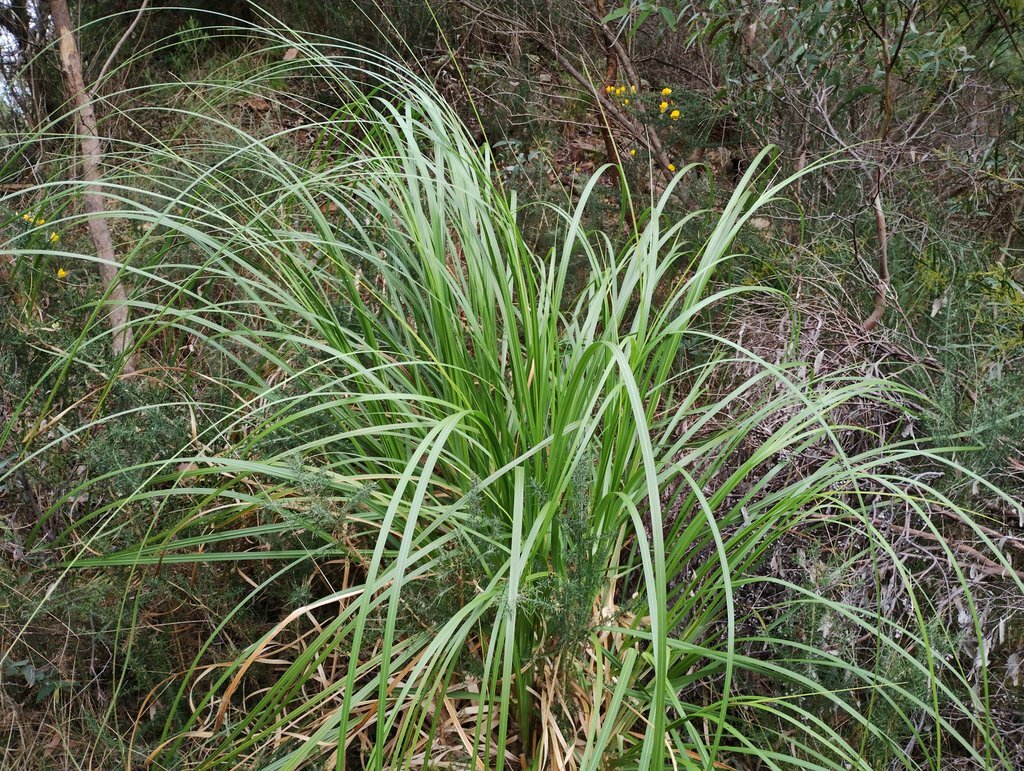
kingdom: Plantae
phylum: Tracheophyta
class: Liliopsida
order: Poales
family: Poaceae
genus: Cortaderia
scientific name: Cortaderia selloana
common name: Uruguayan pampas grass
